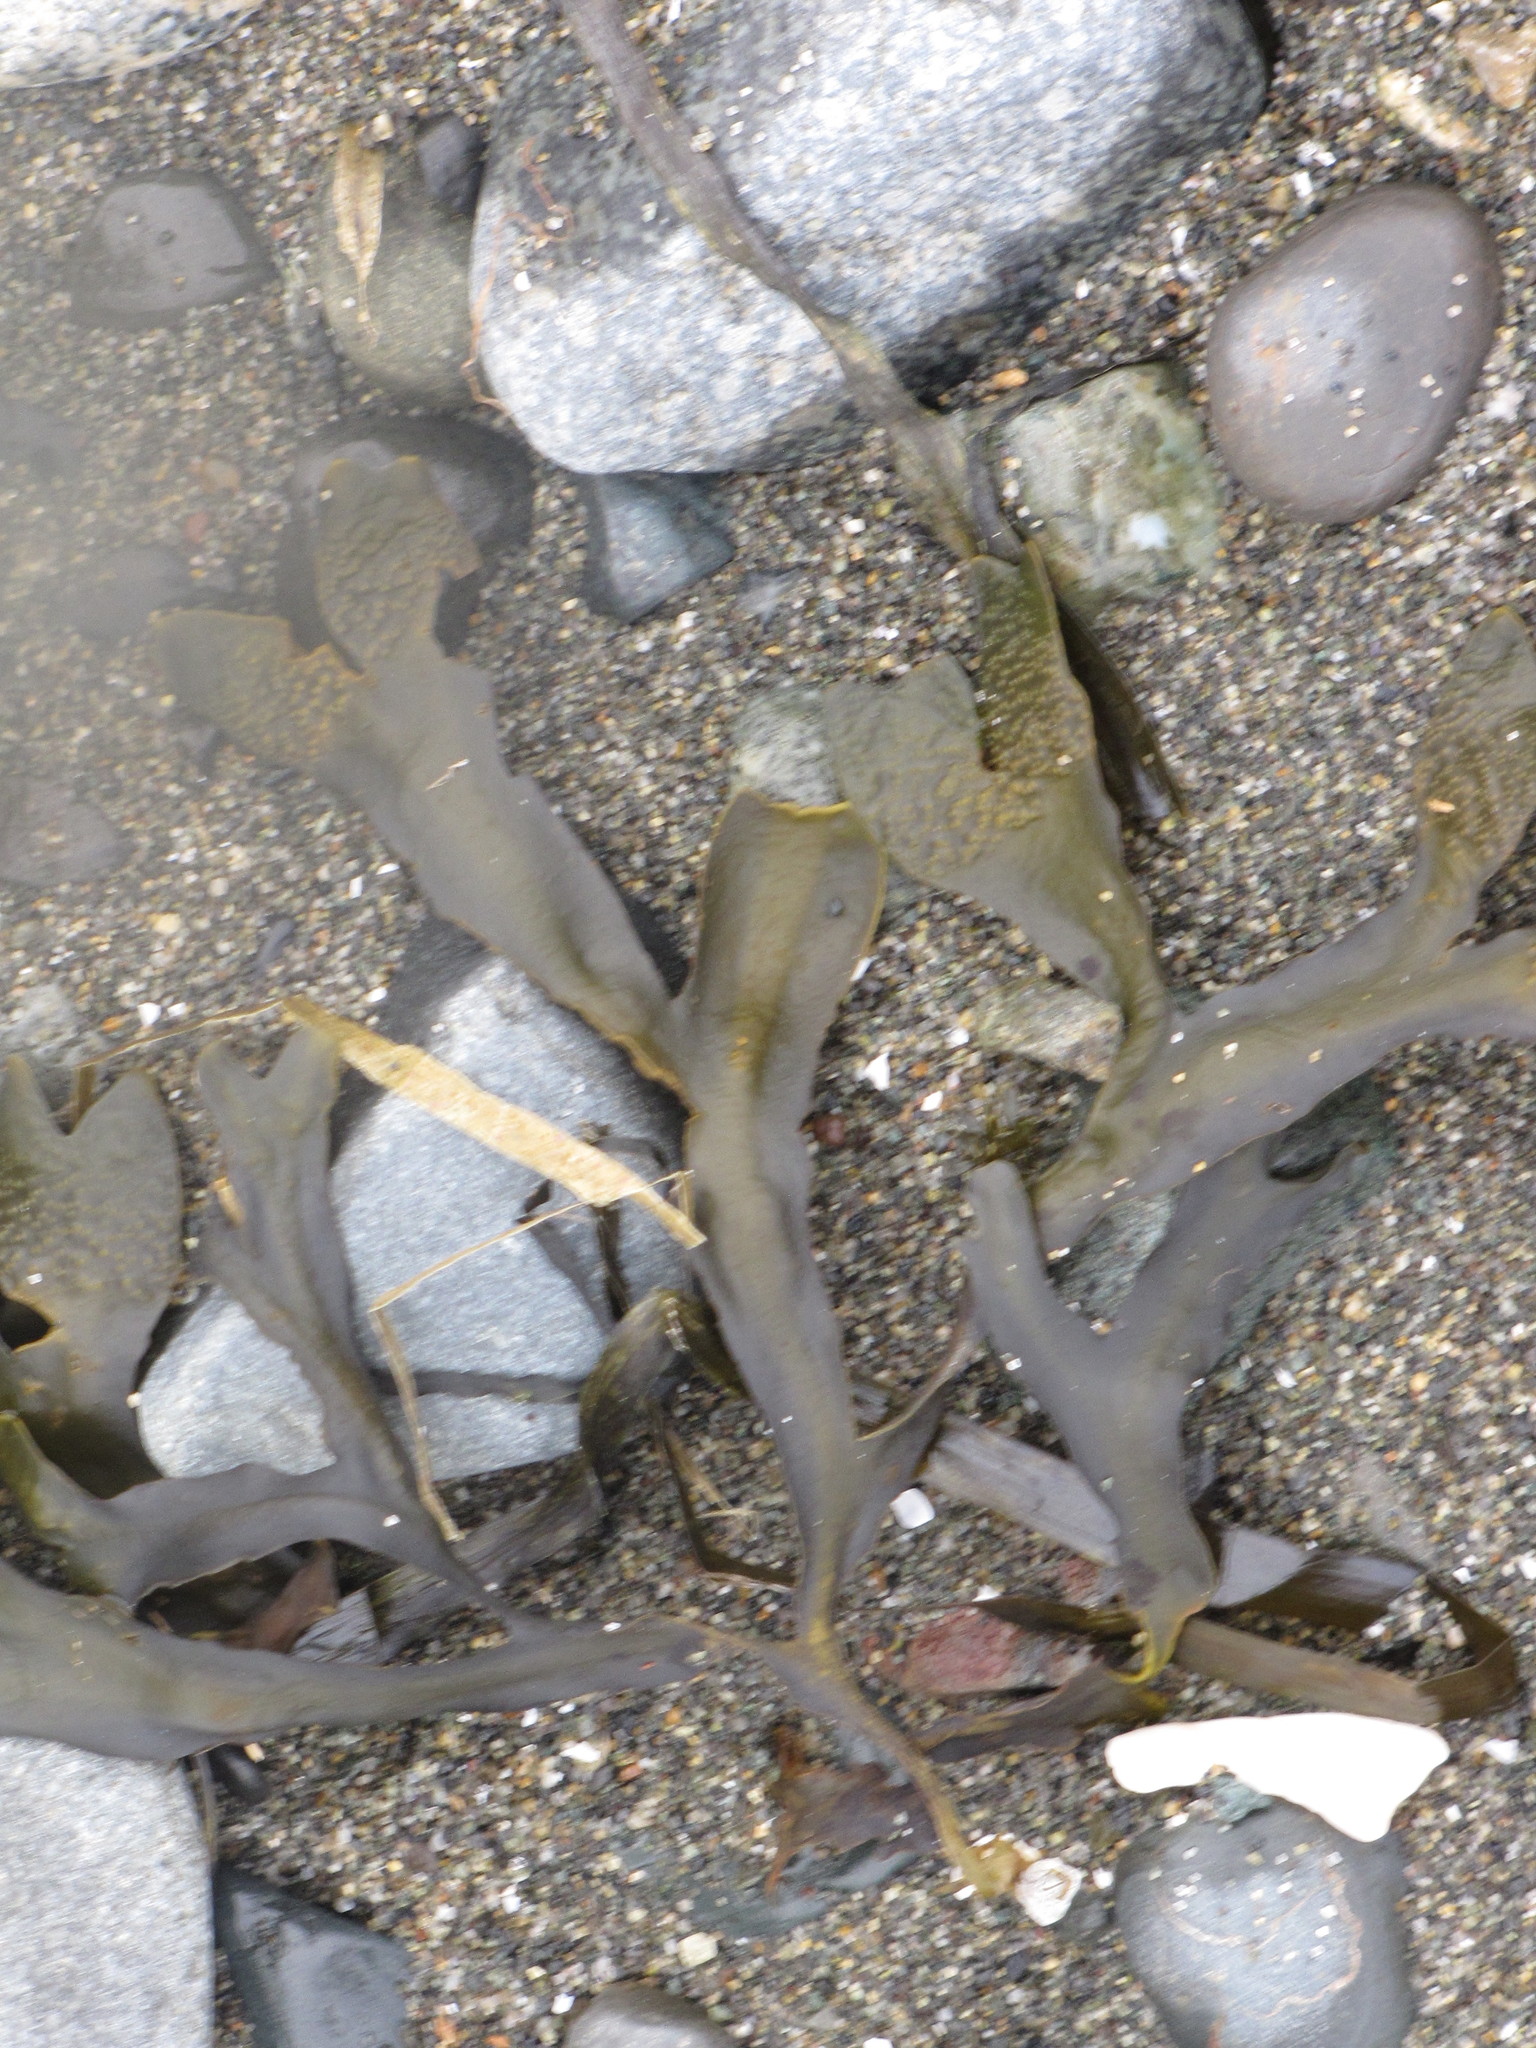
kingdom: Chromista
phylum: Ochrophyta
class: Phaeophyceae
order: Fucales
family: Fucaceae
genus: Fucus
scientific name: Fucus distichus
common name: Rockweed
